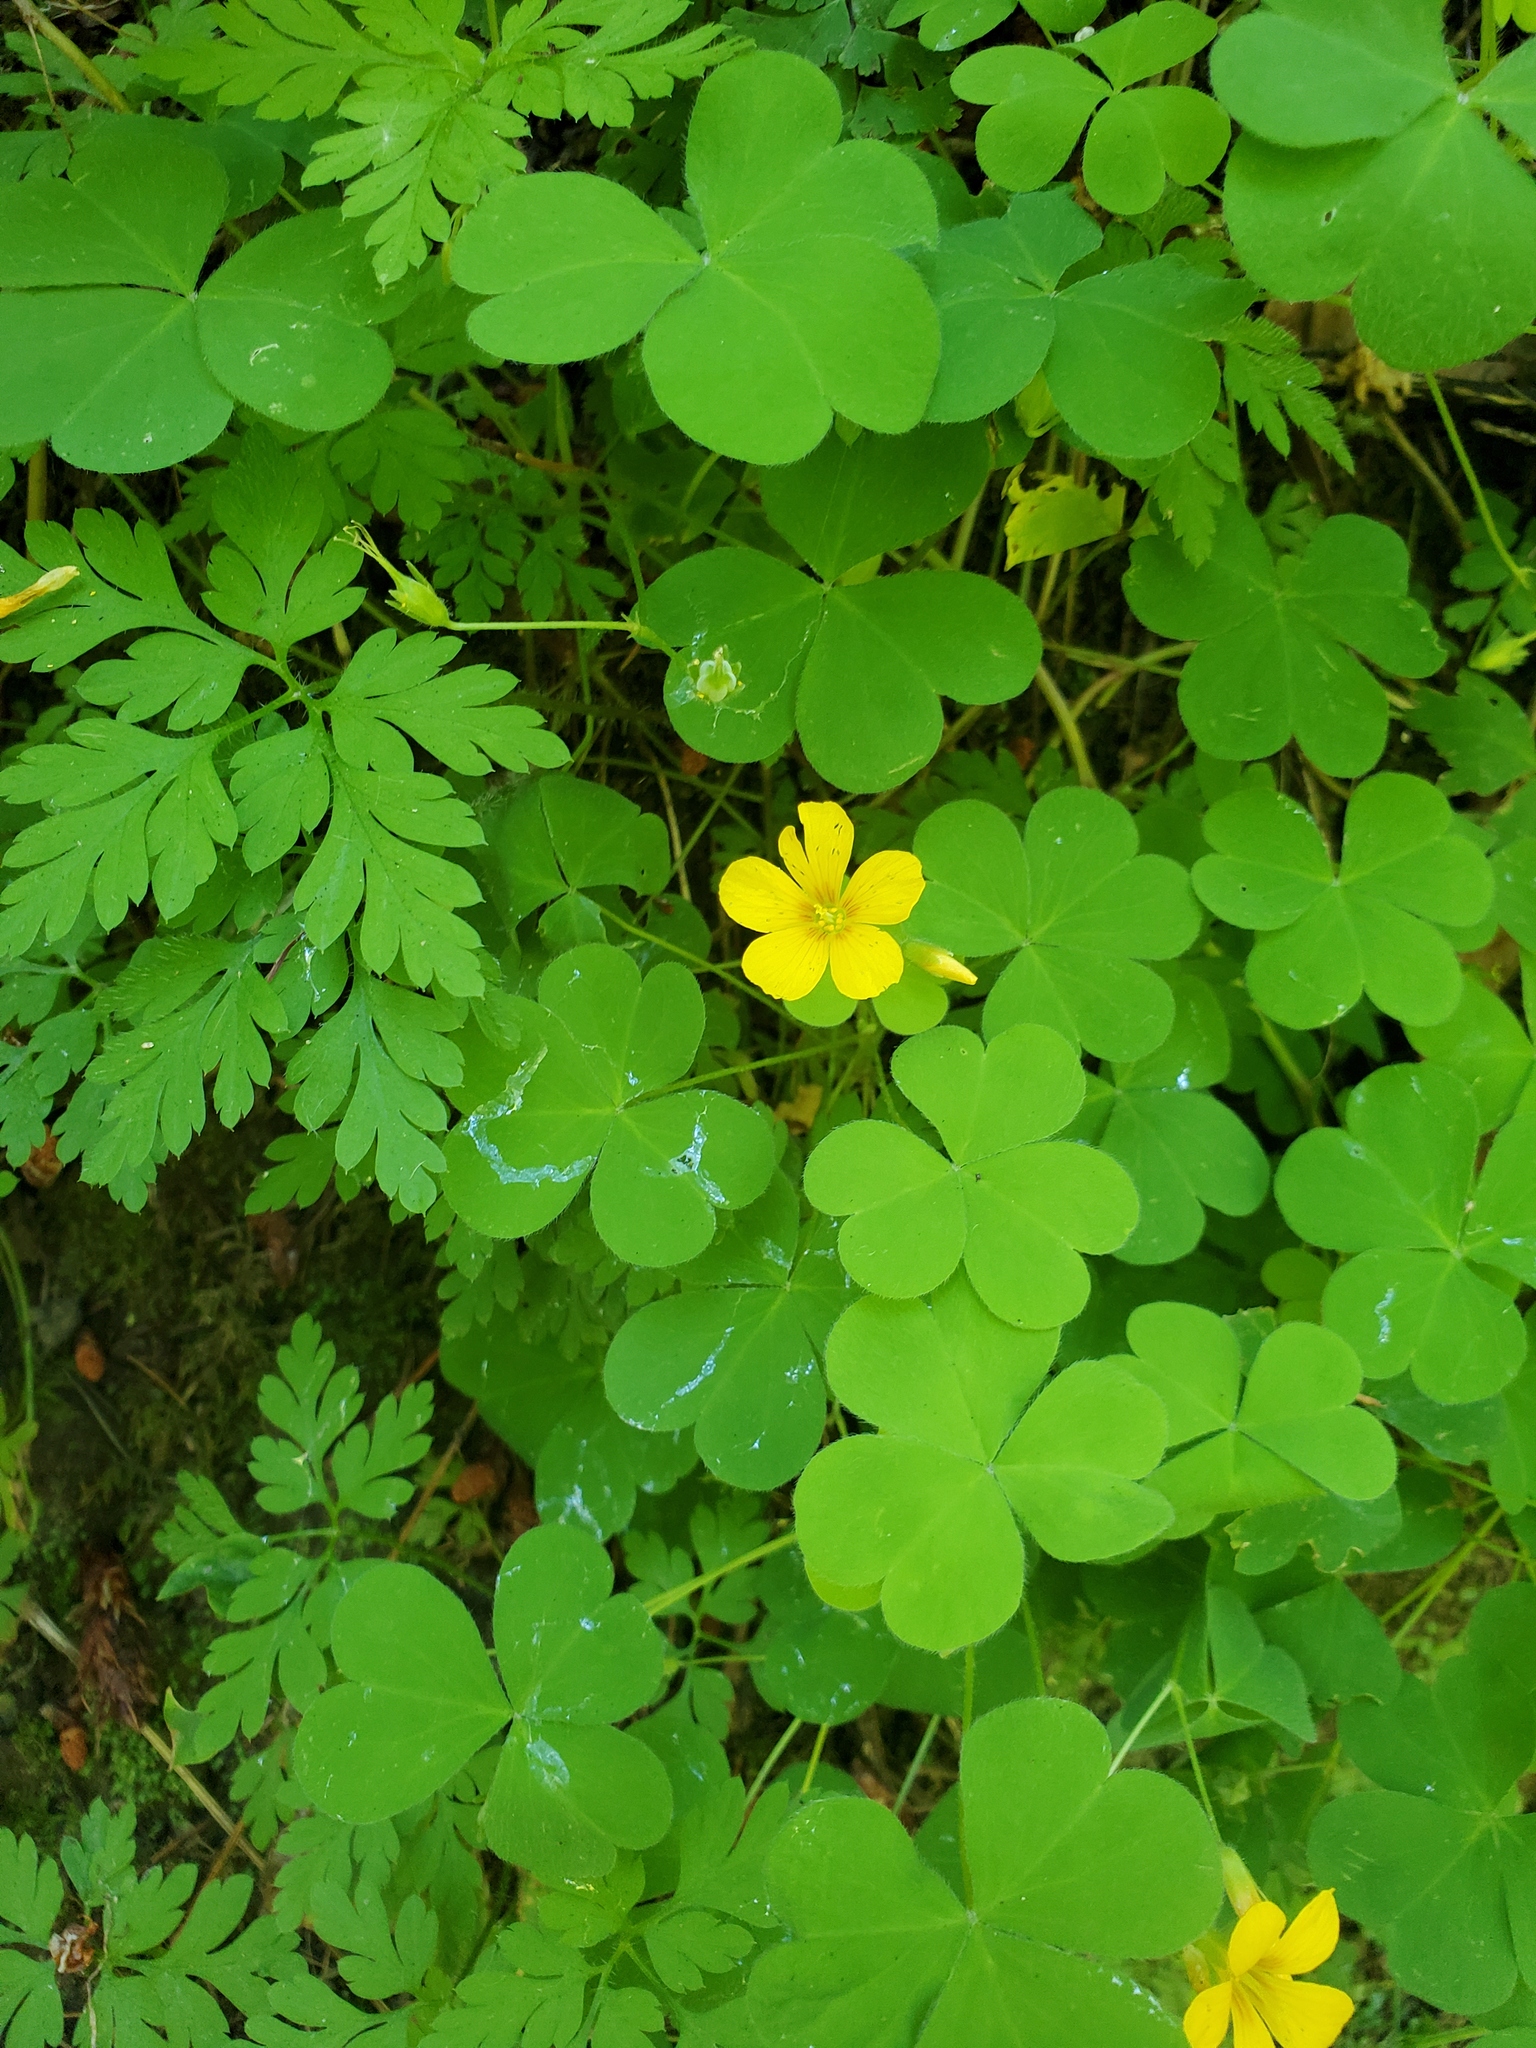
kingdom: Plantae
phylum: Tracheophyta
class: Magnoliopsida
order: Oxalidales
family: Oxalidaceae
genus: Oxalis
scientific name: Oxalis suksdorfii
